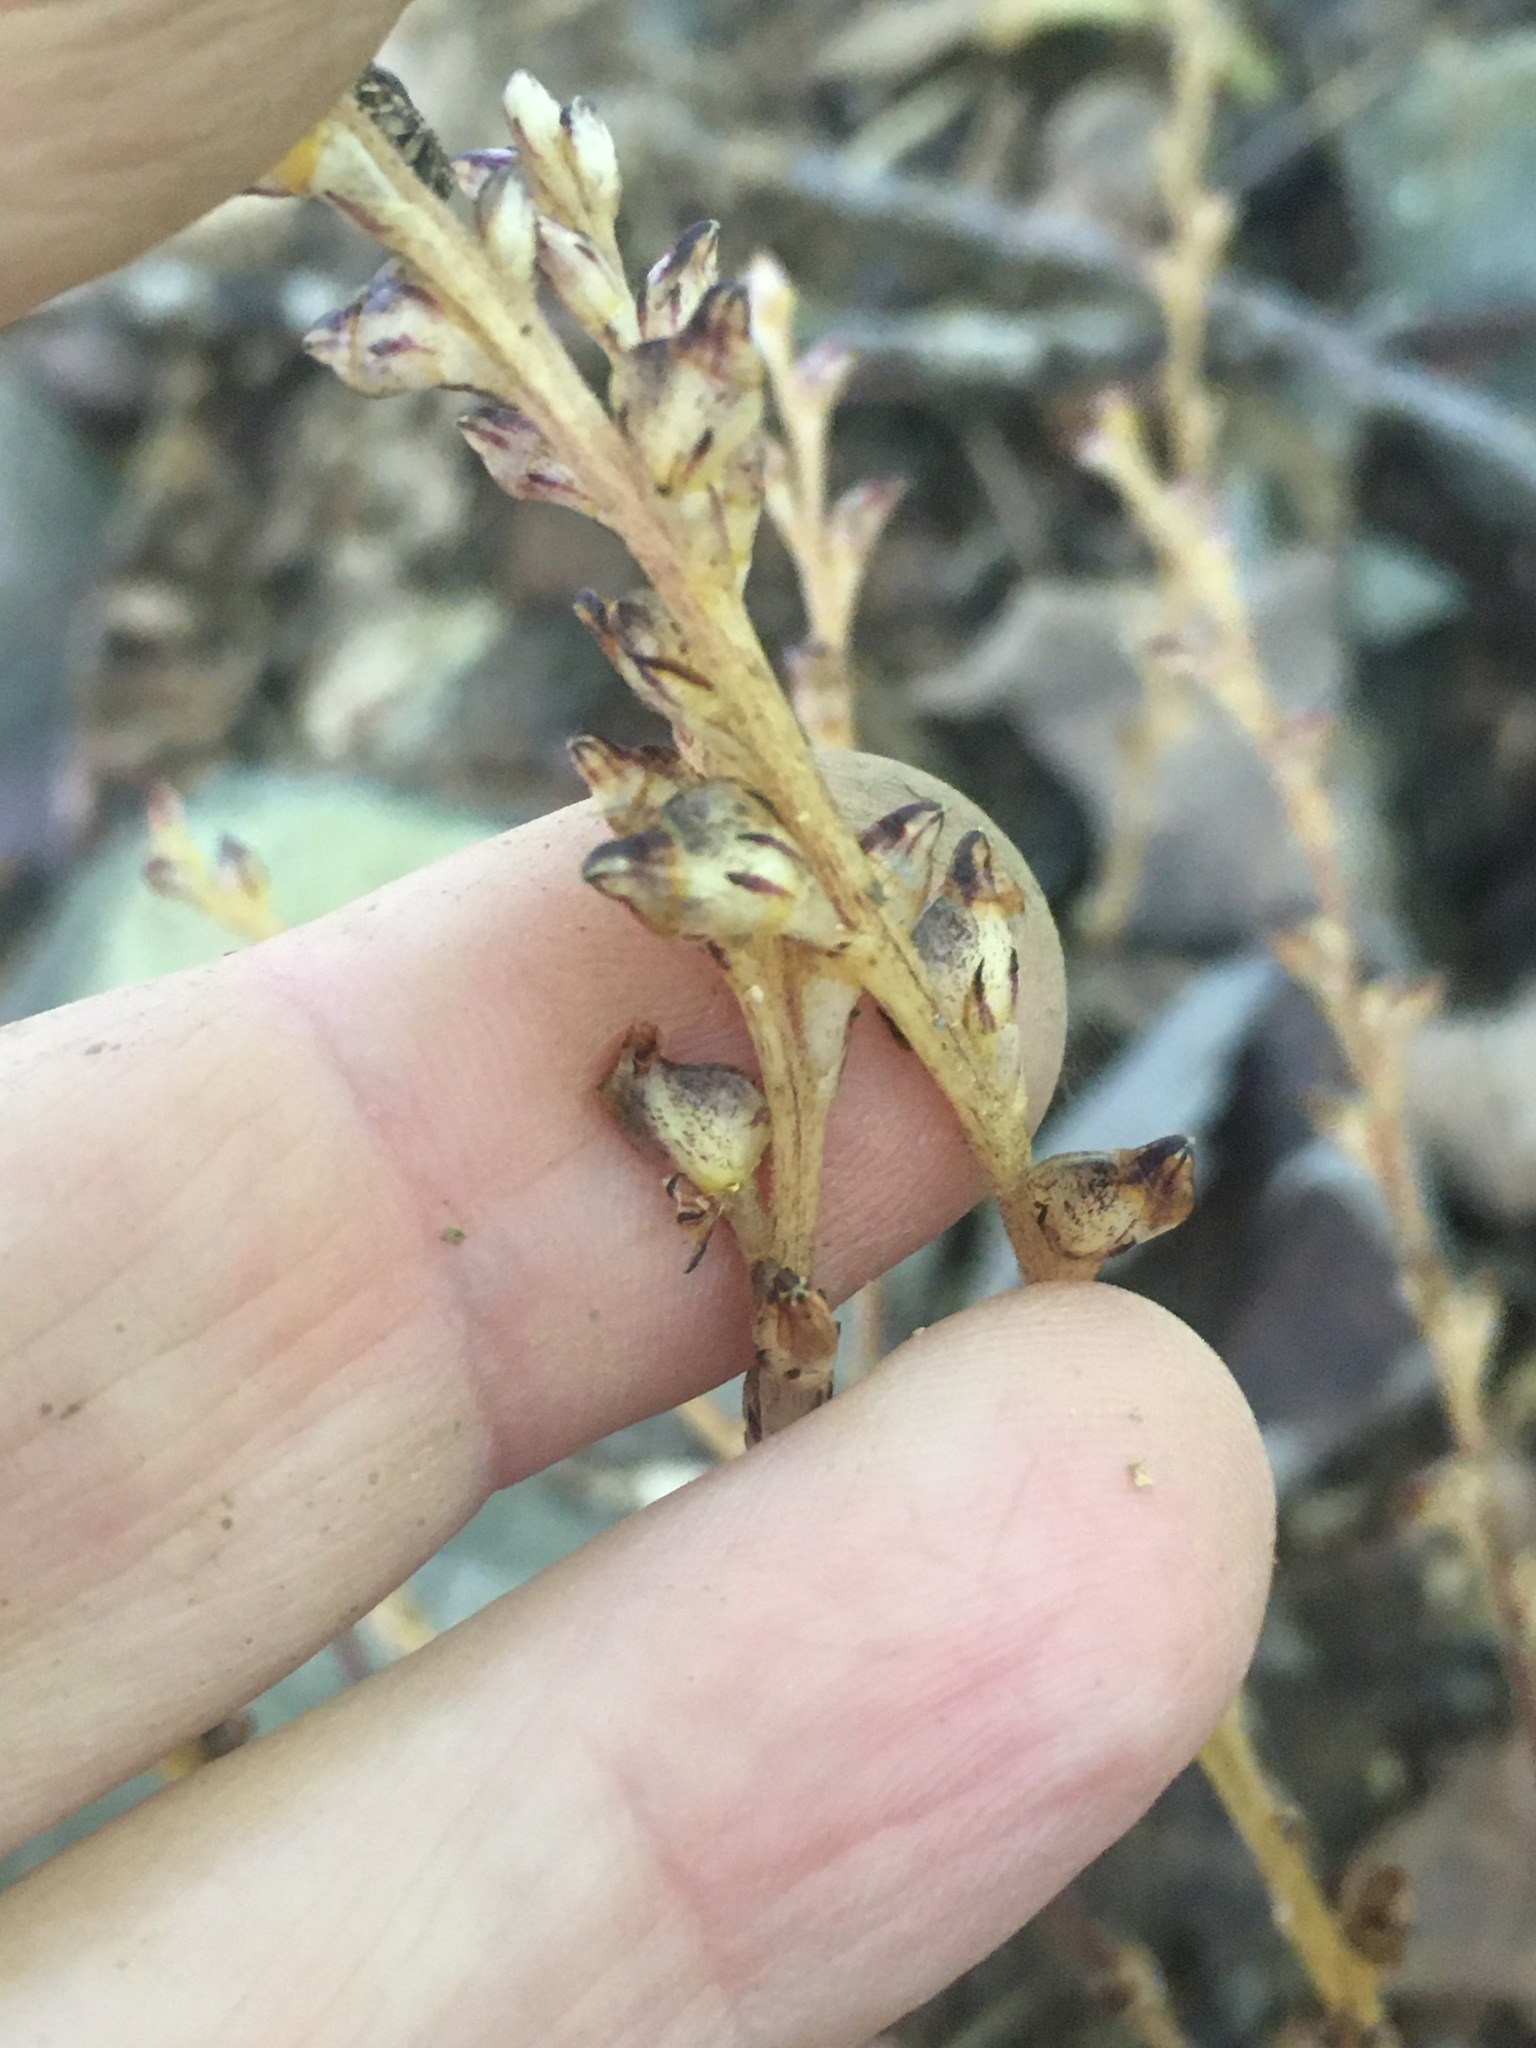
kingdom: Plantae
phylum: Tracheophyta
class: Magnoliopsida
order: Lamiales
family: Orobanchaceae
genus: Epifagus
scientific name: Epifagus virginiana
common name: Beechdrops
